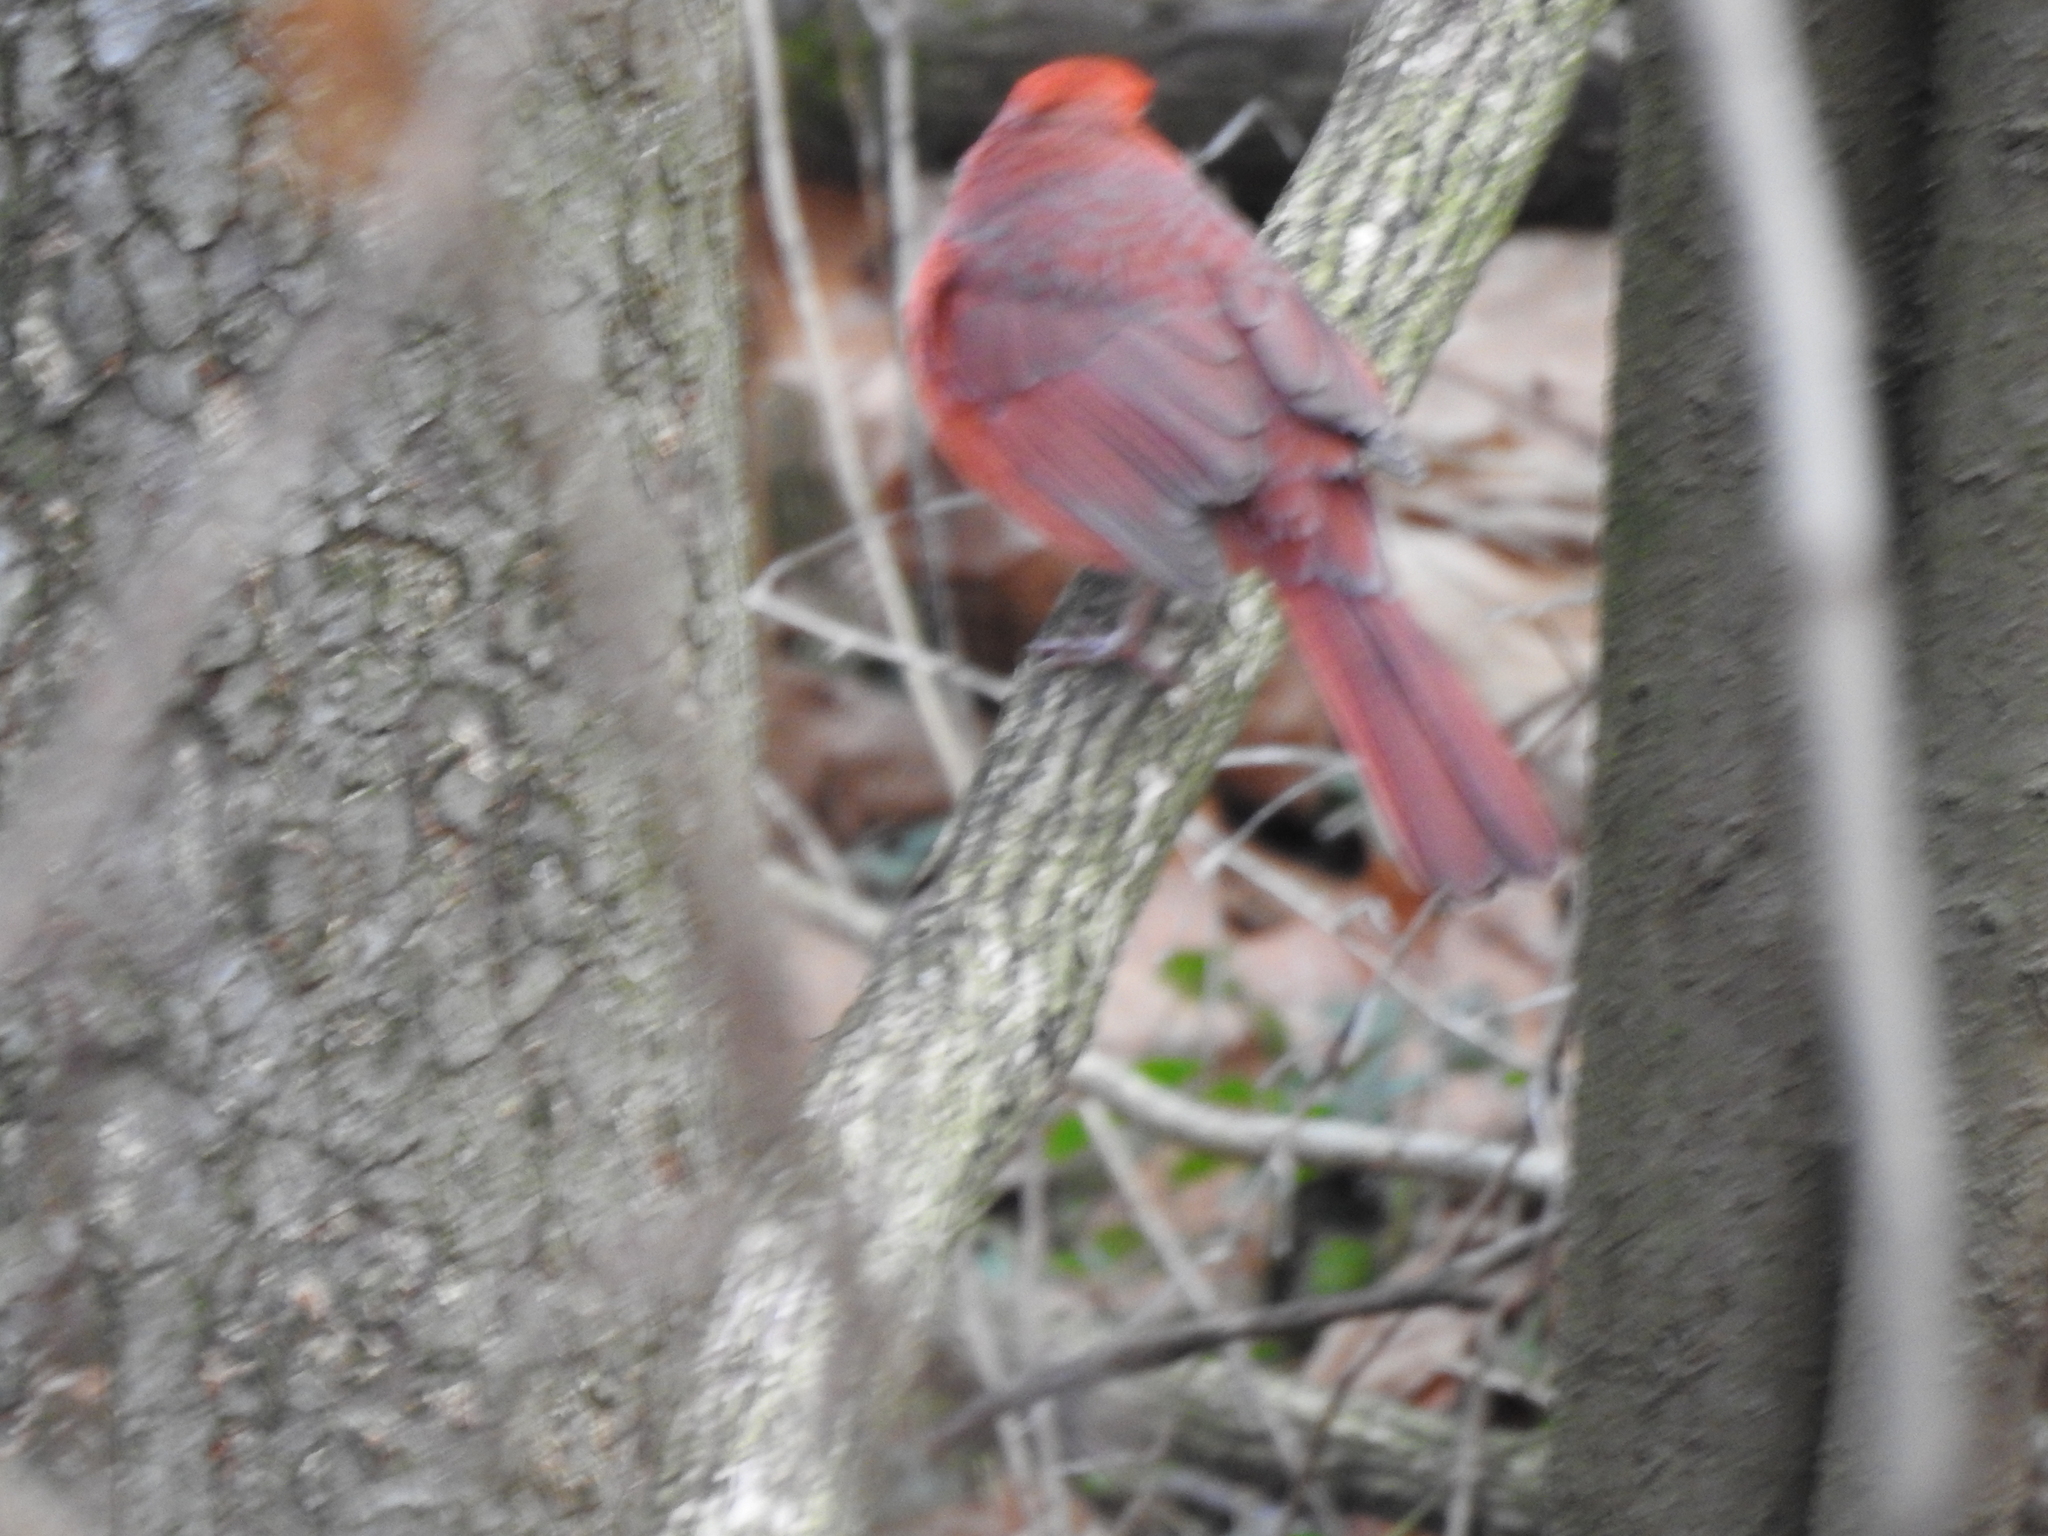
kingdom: Animalia
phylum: Chordata
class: Aves
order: Passeriformes
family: Cardinalidae
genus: Cardinalis
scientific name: Cardinalis cardinalis
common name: Northern cardinal
